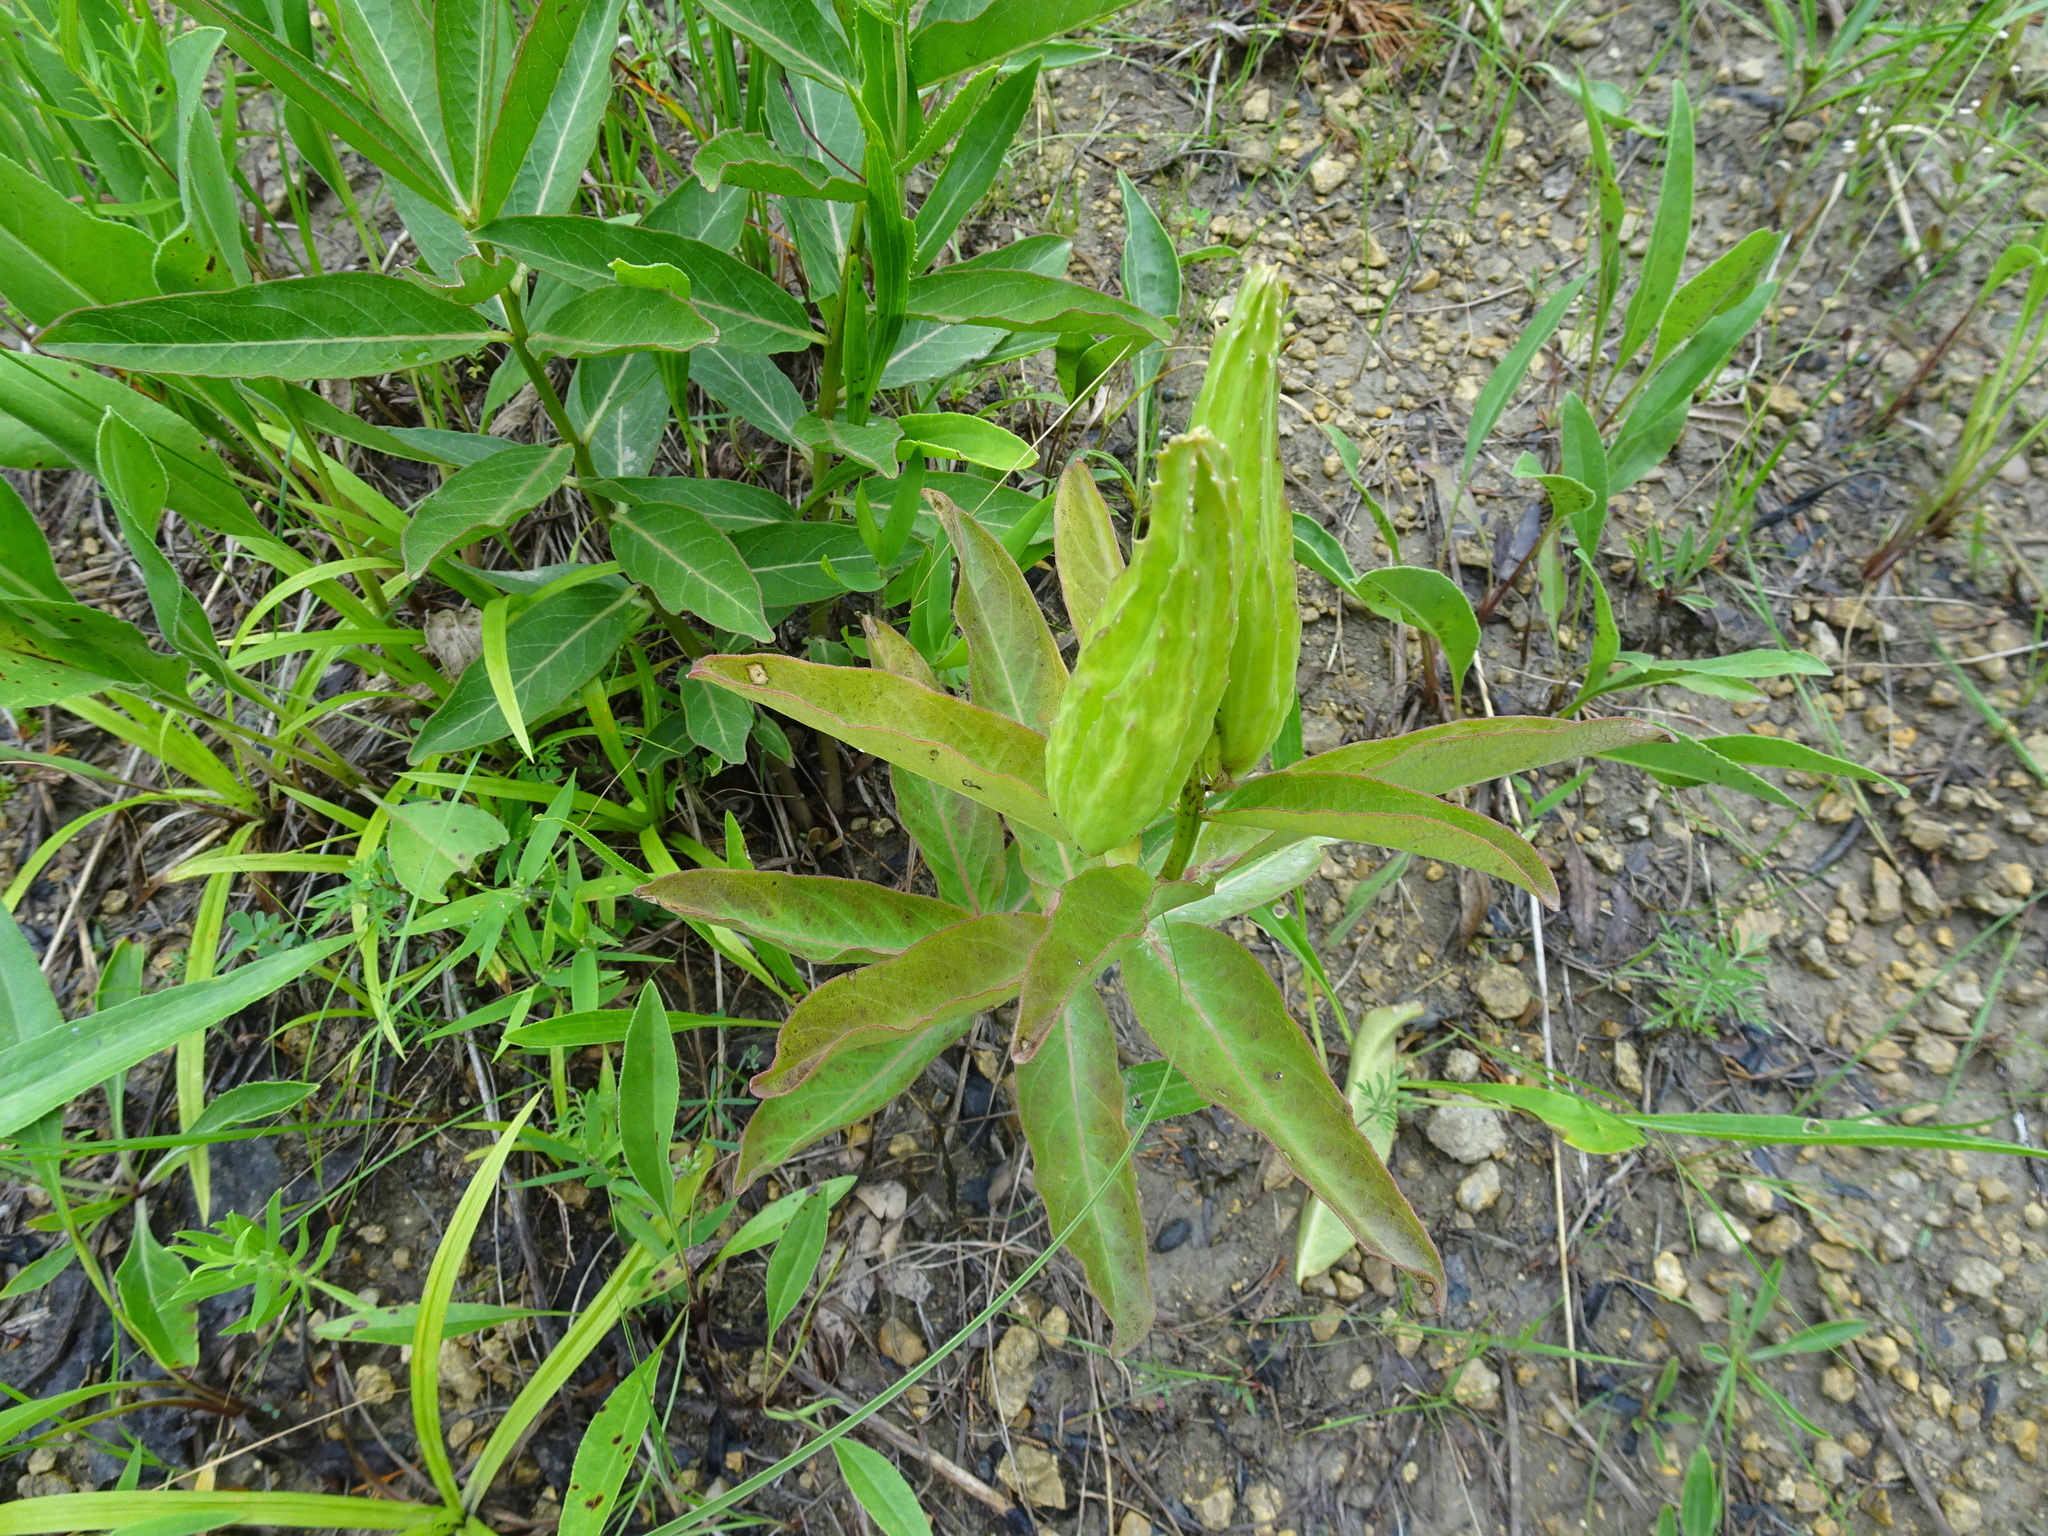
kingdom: Plantae
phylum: Tracheophyta
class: Magnoliopsida
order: Gentianales
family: Apocynaceae
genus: Asclepias
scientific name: Asclepias viridis
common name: Antelope-horns
